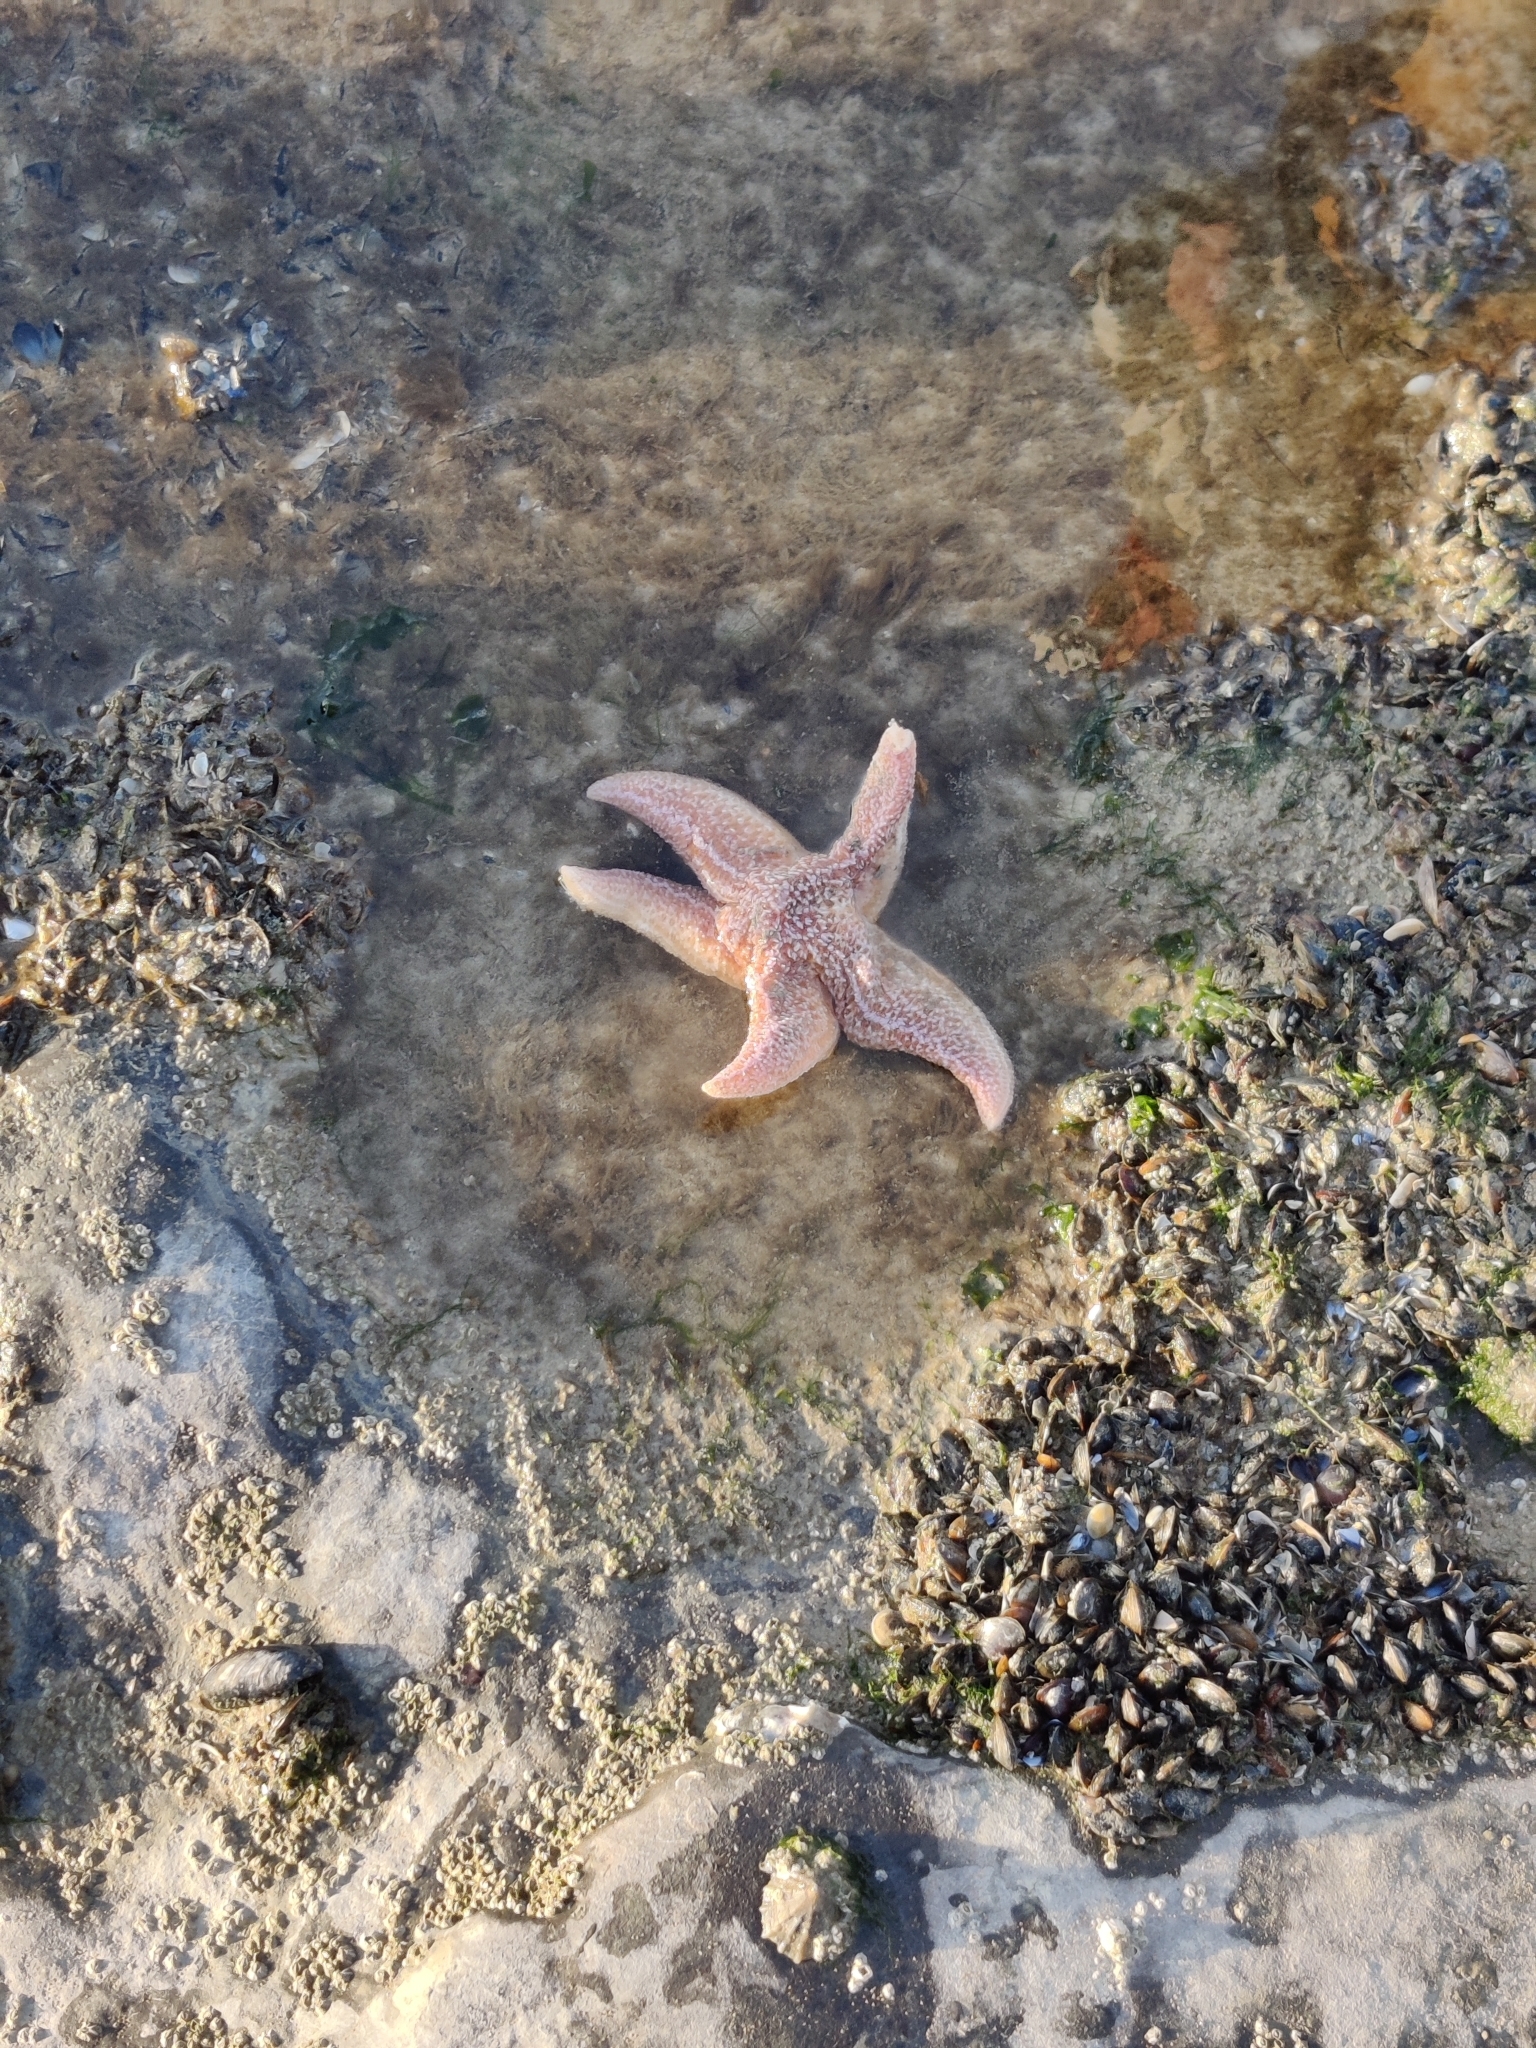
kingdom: Animalia
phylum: Echinodermata
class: Asteroidea
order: Forcipulatida
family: Asteriidae
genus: Asterias
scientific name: Asterias rubens
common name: Common starfish
